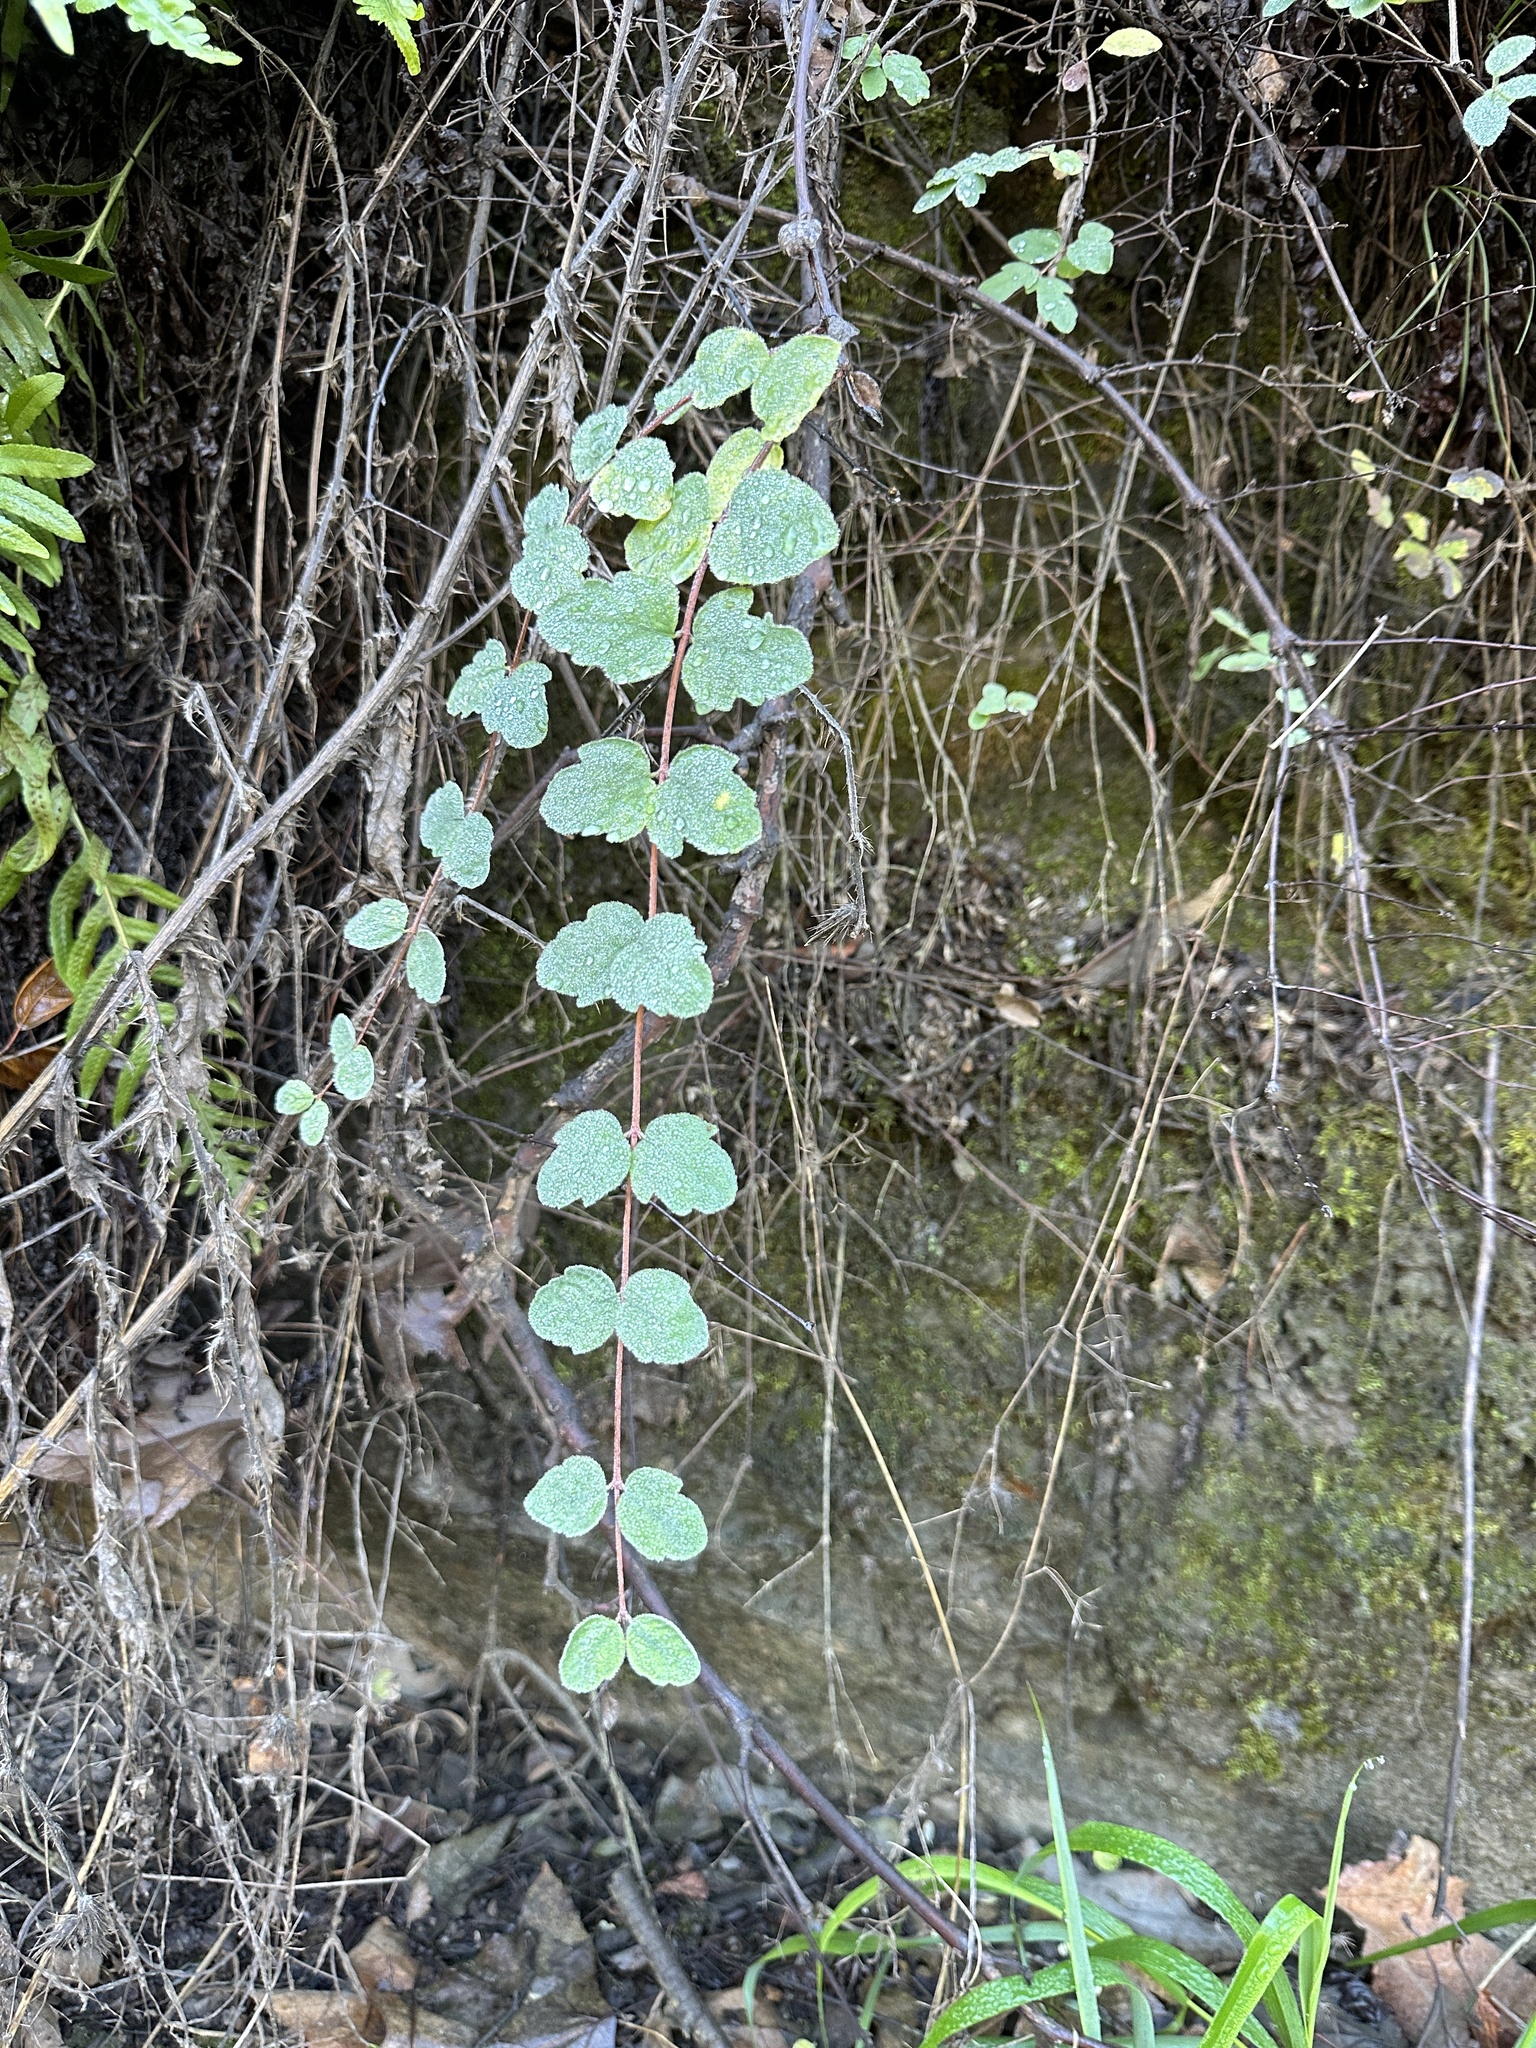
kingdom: Plantae
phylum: Tracheophyta
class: Magnoliopsida
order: Dipsacales
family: Caprifoliaceae
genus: Symphoricarpos
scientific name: Symphoricarpos mollis
